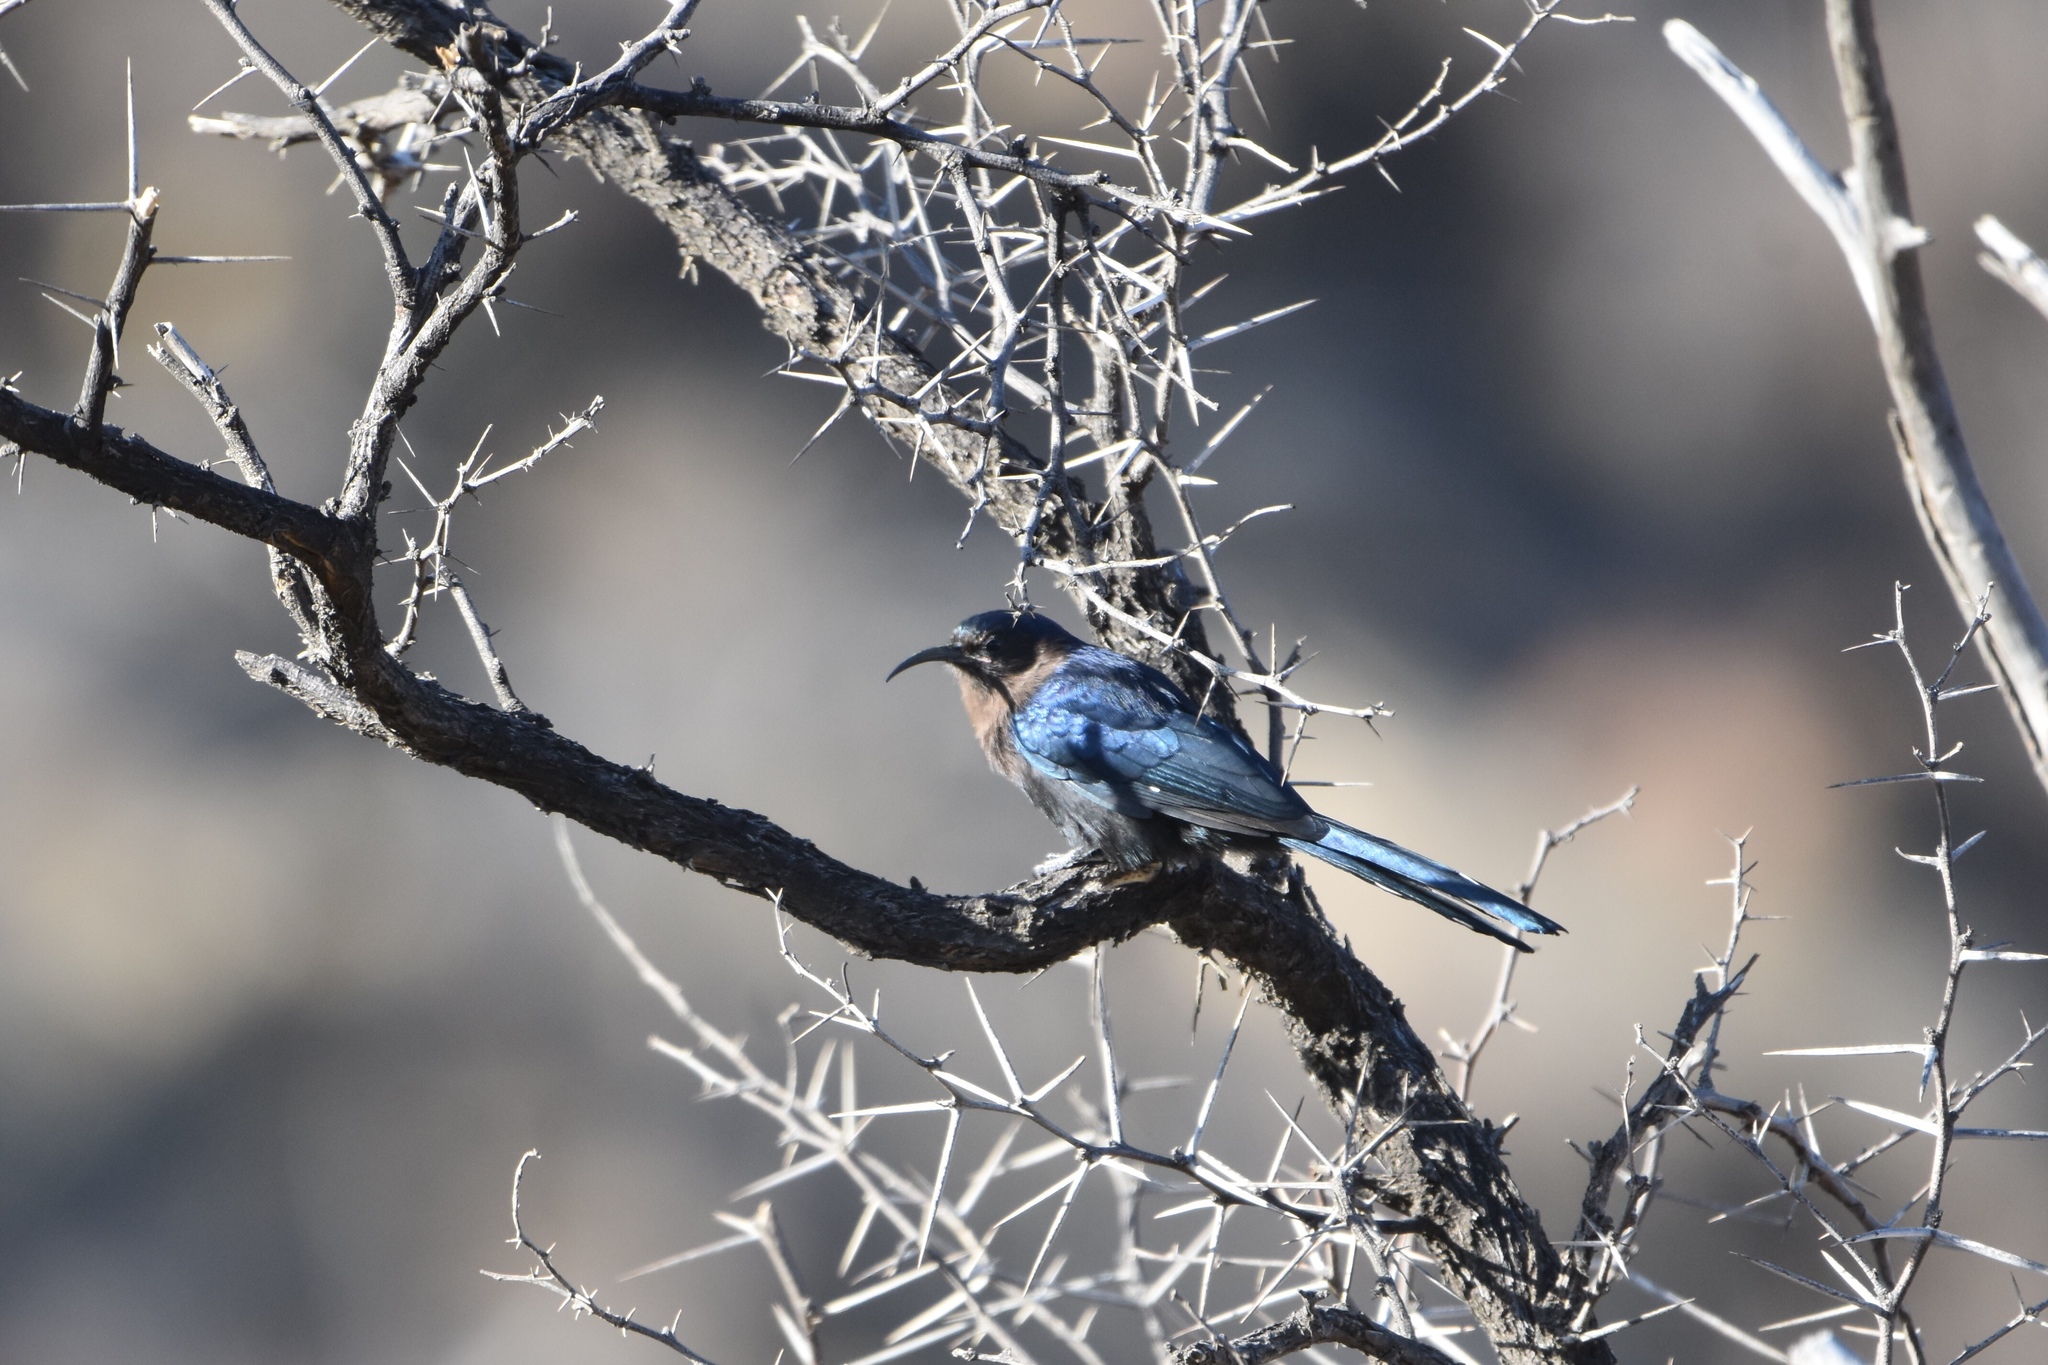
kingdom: Animalia
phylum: Chordata
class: Aves
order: Bucerotiformes
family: Phoeniculidae
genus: Rhinopomastus
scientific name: Rhinopomastus cyanomelas
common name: Common scimitarbill
